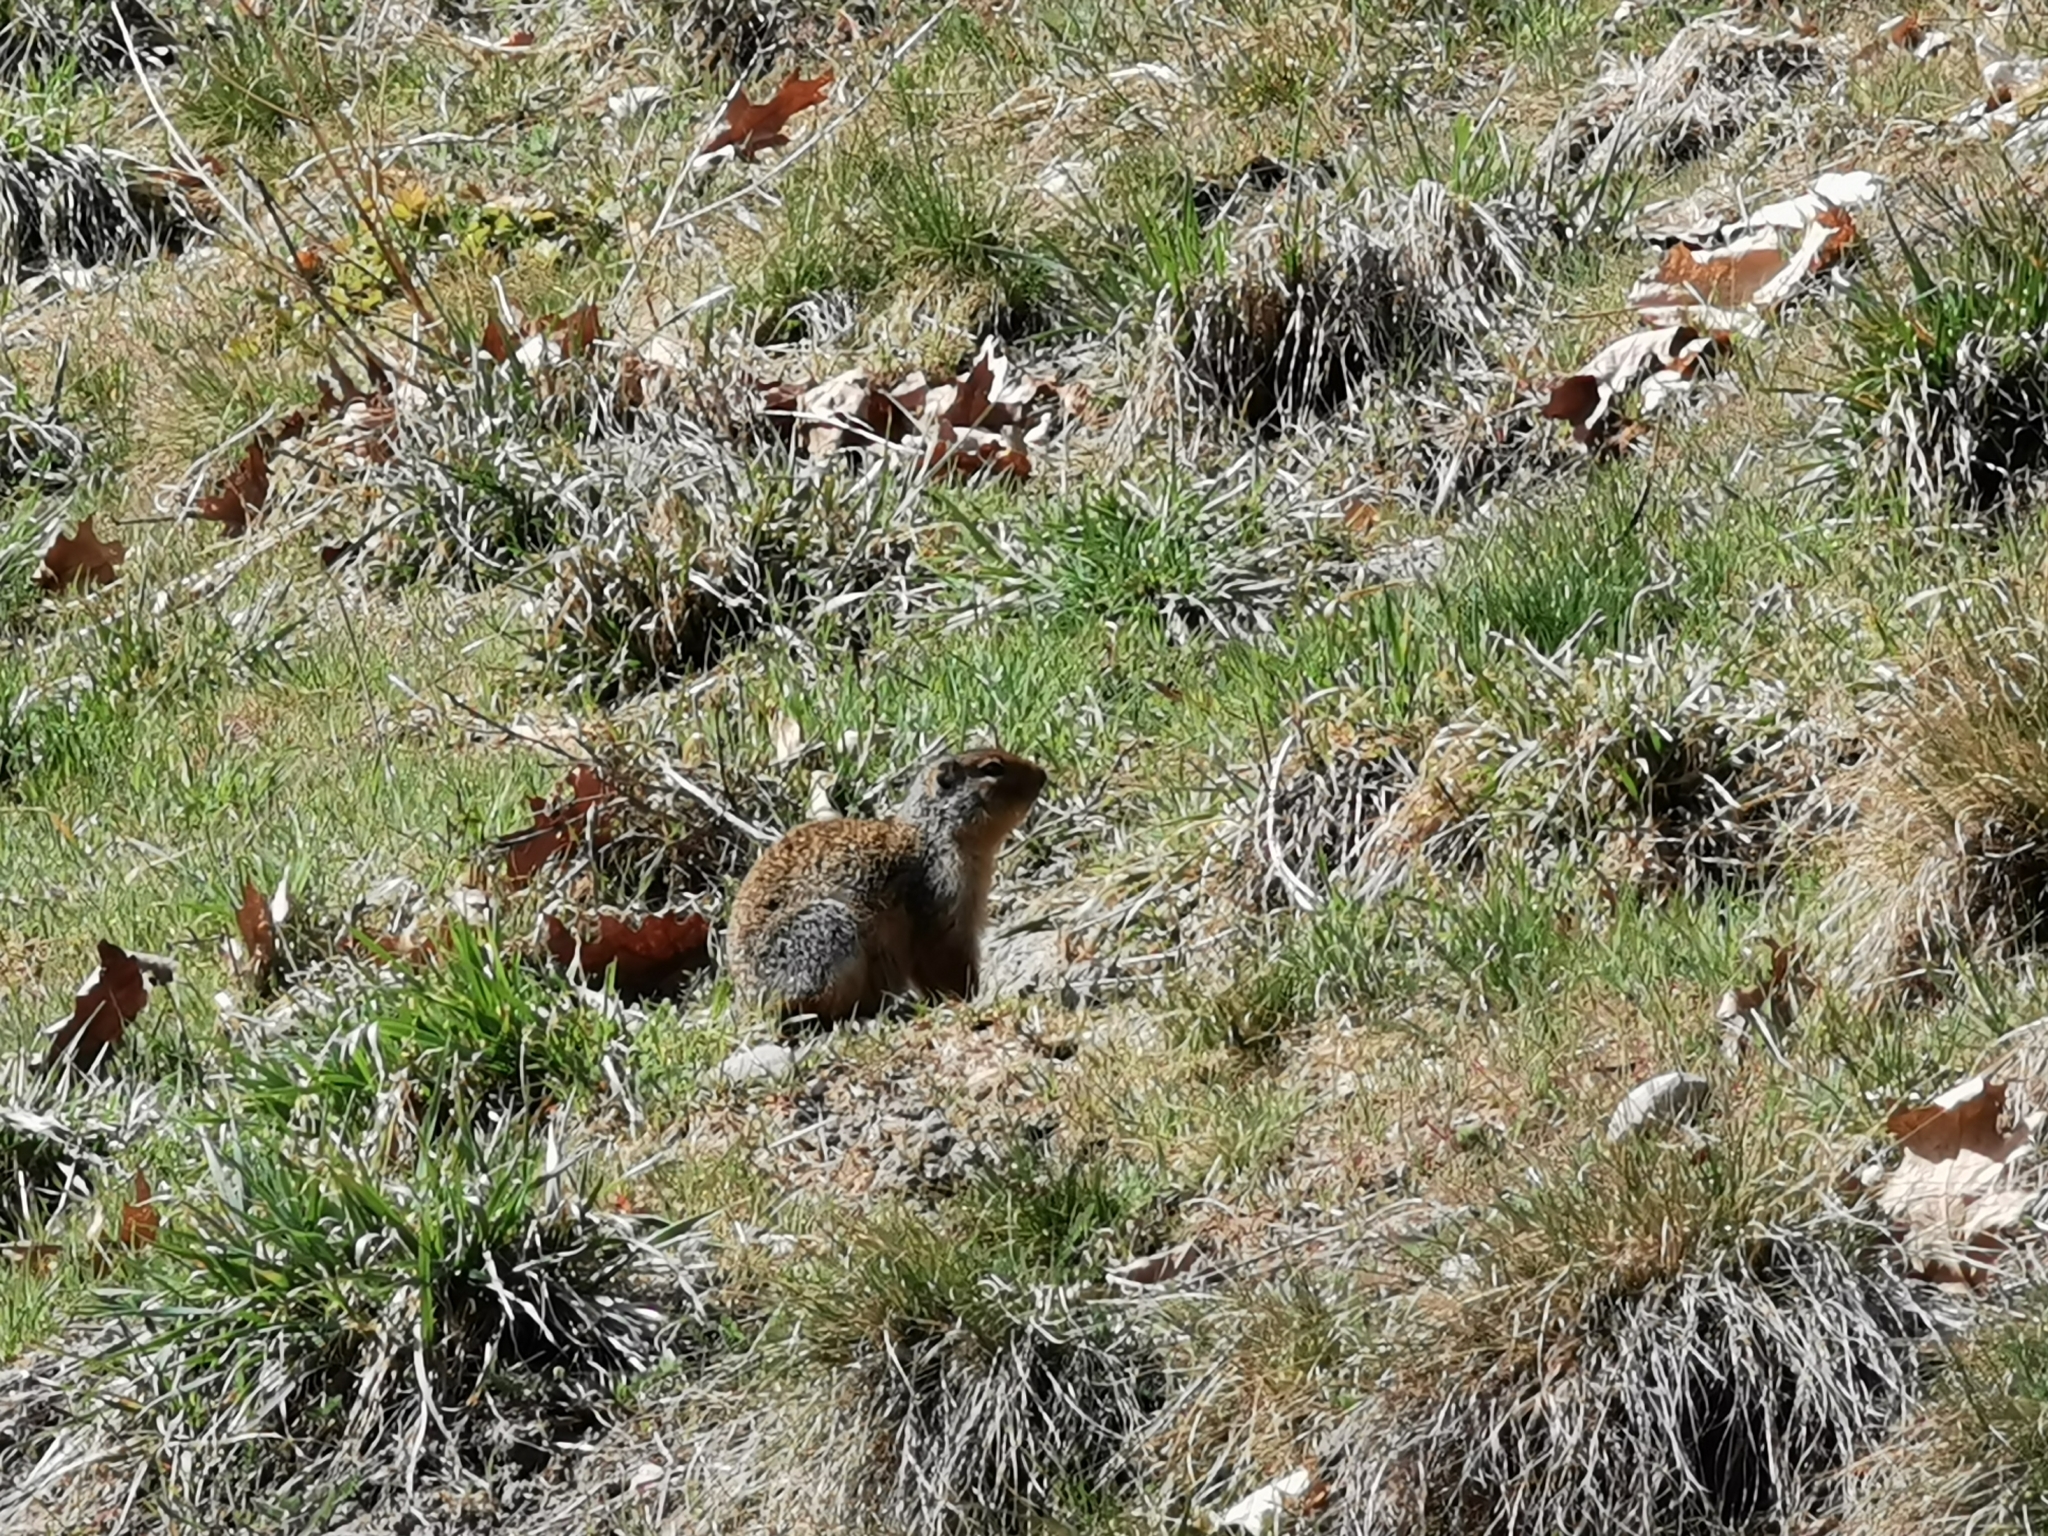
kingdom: Animalia
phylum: Chordata
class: Mammalia
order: Rodentia
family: Sciuridae
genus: Urocitellus
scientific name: Urocitellus columbianus
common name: Columbian ground squirrel
